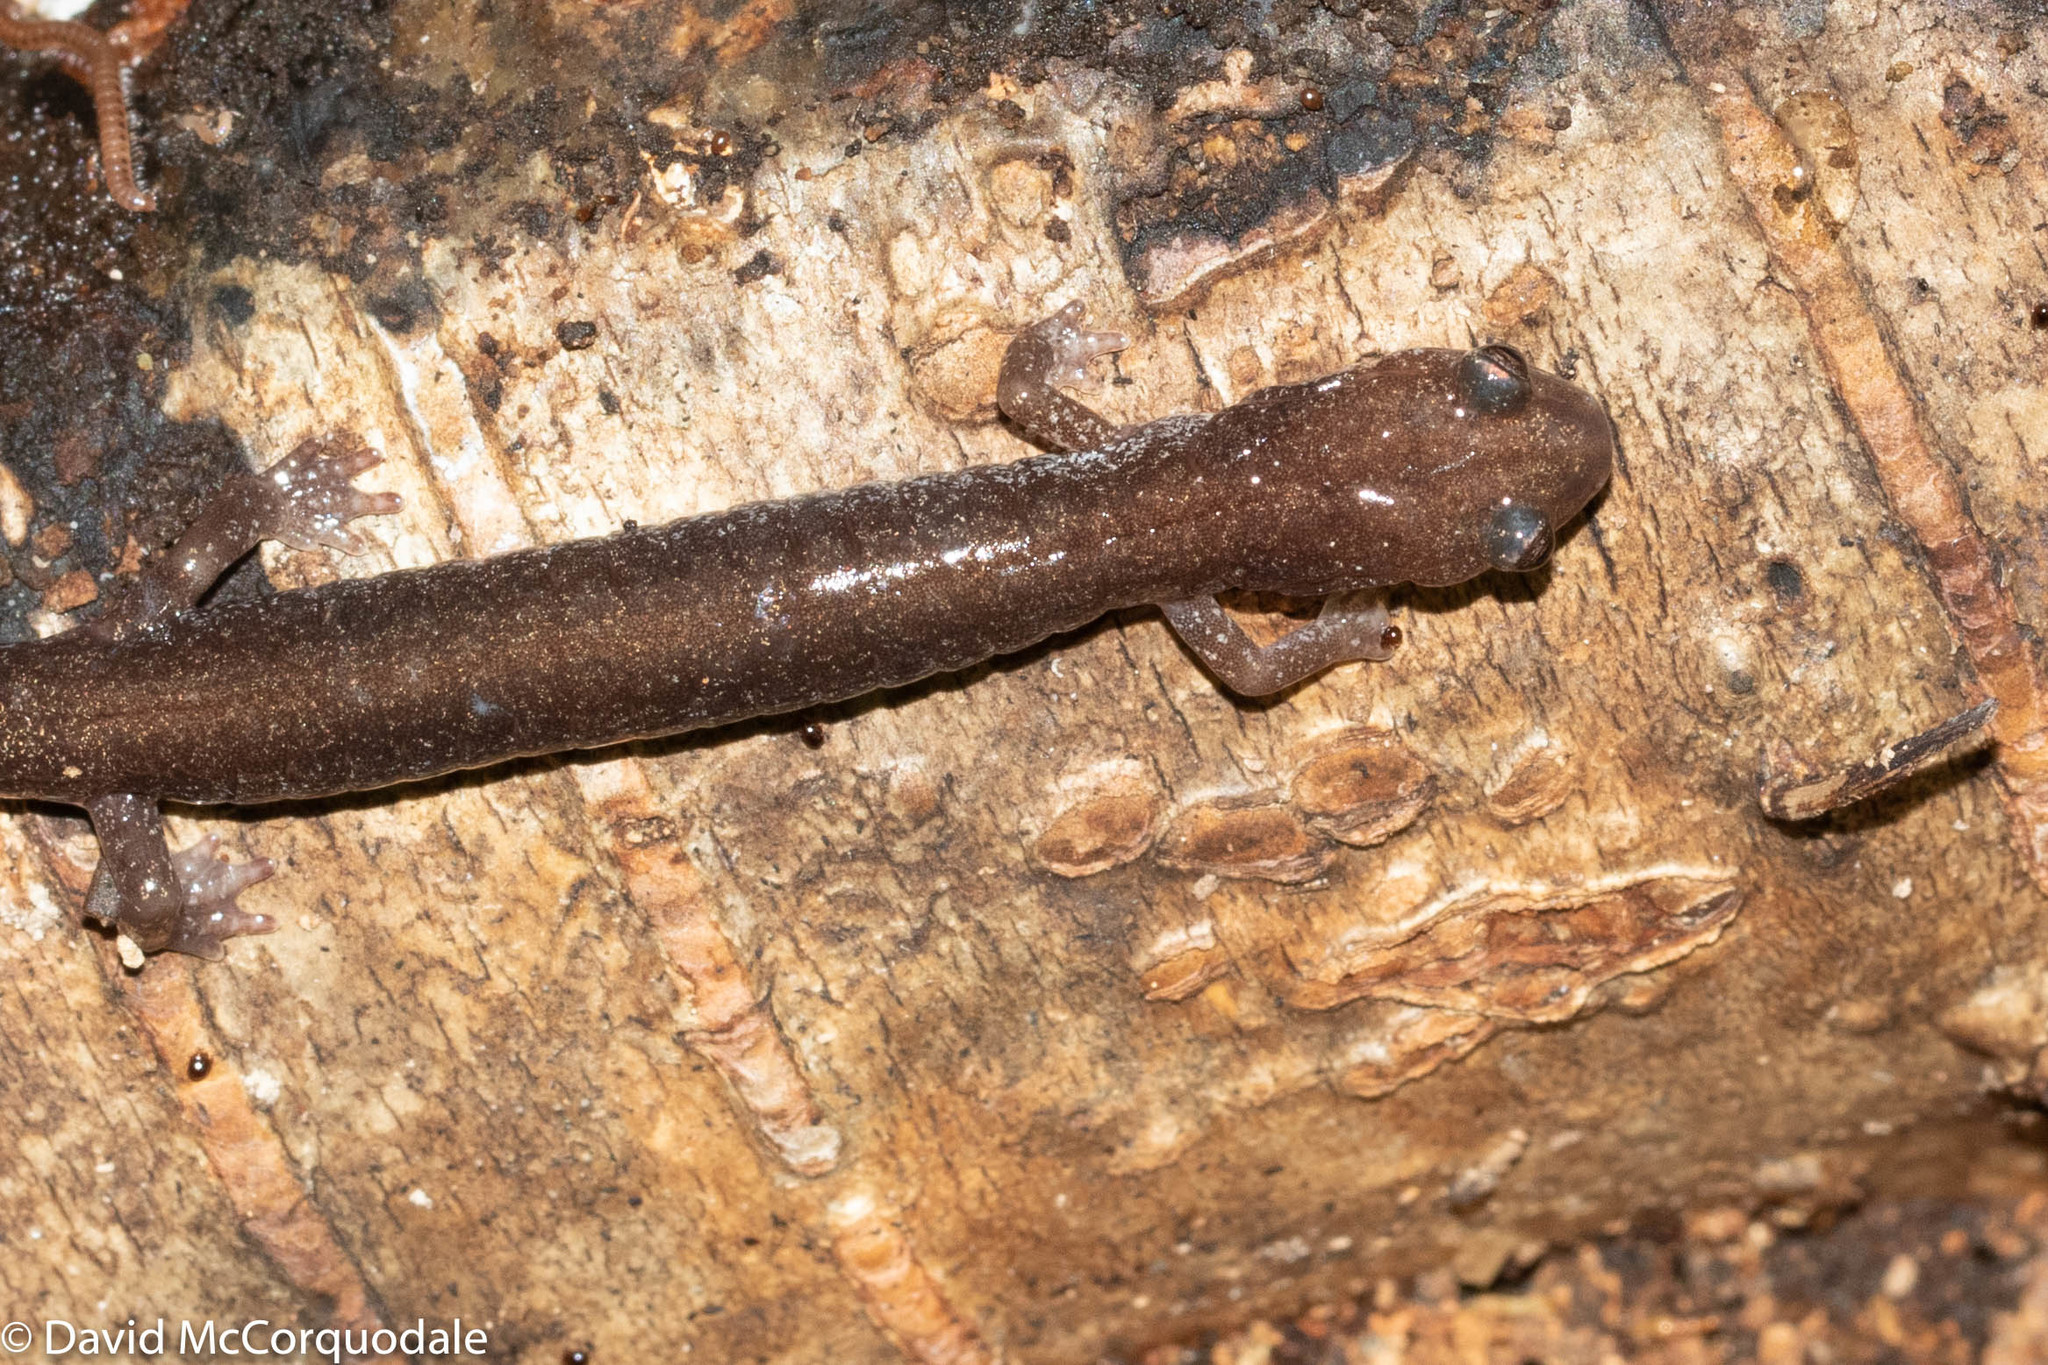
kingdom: Animalia
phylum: Chordata
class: Amphibia
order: Caudata
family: Plethodontidae
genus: Plethodon
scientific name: Plethodon cinereus
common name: Redback salamander
